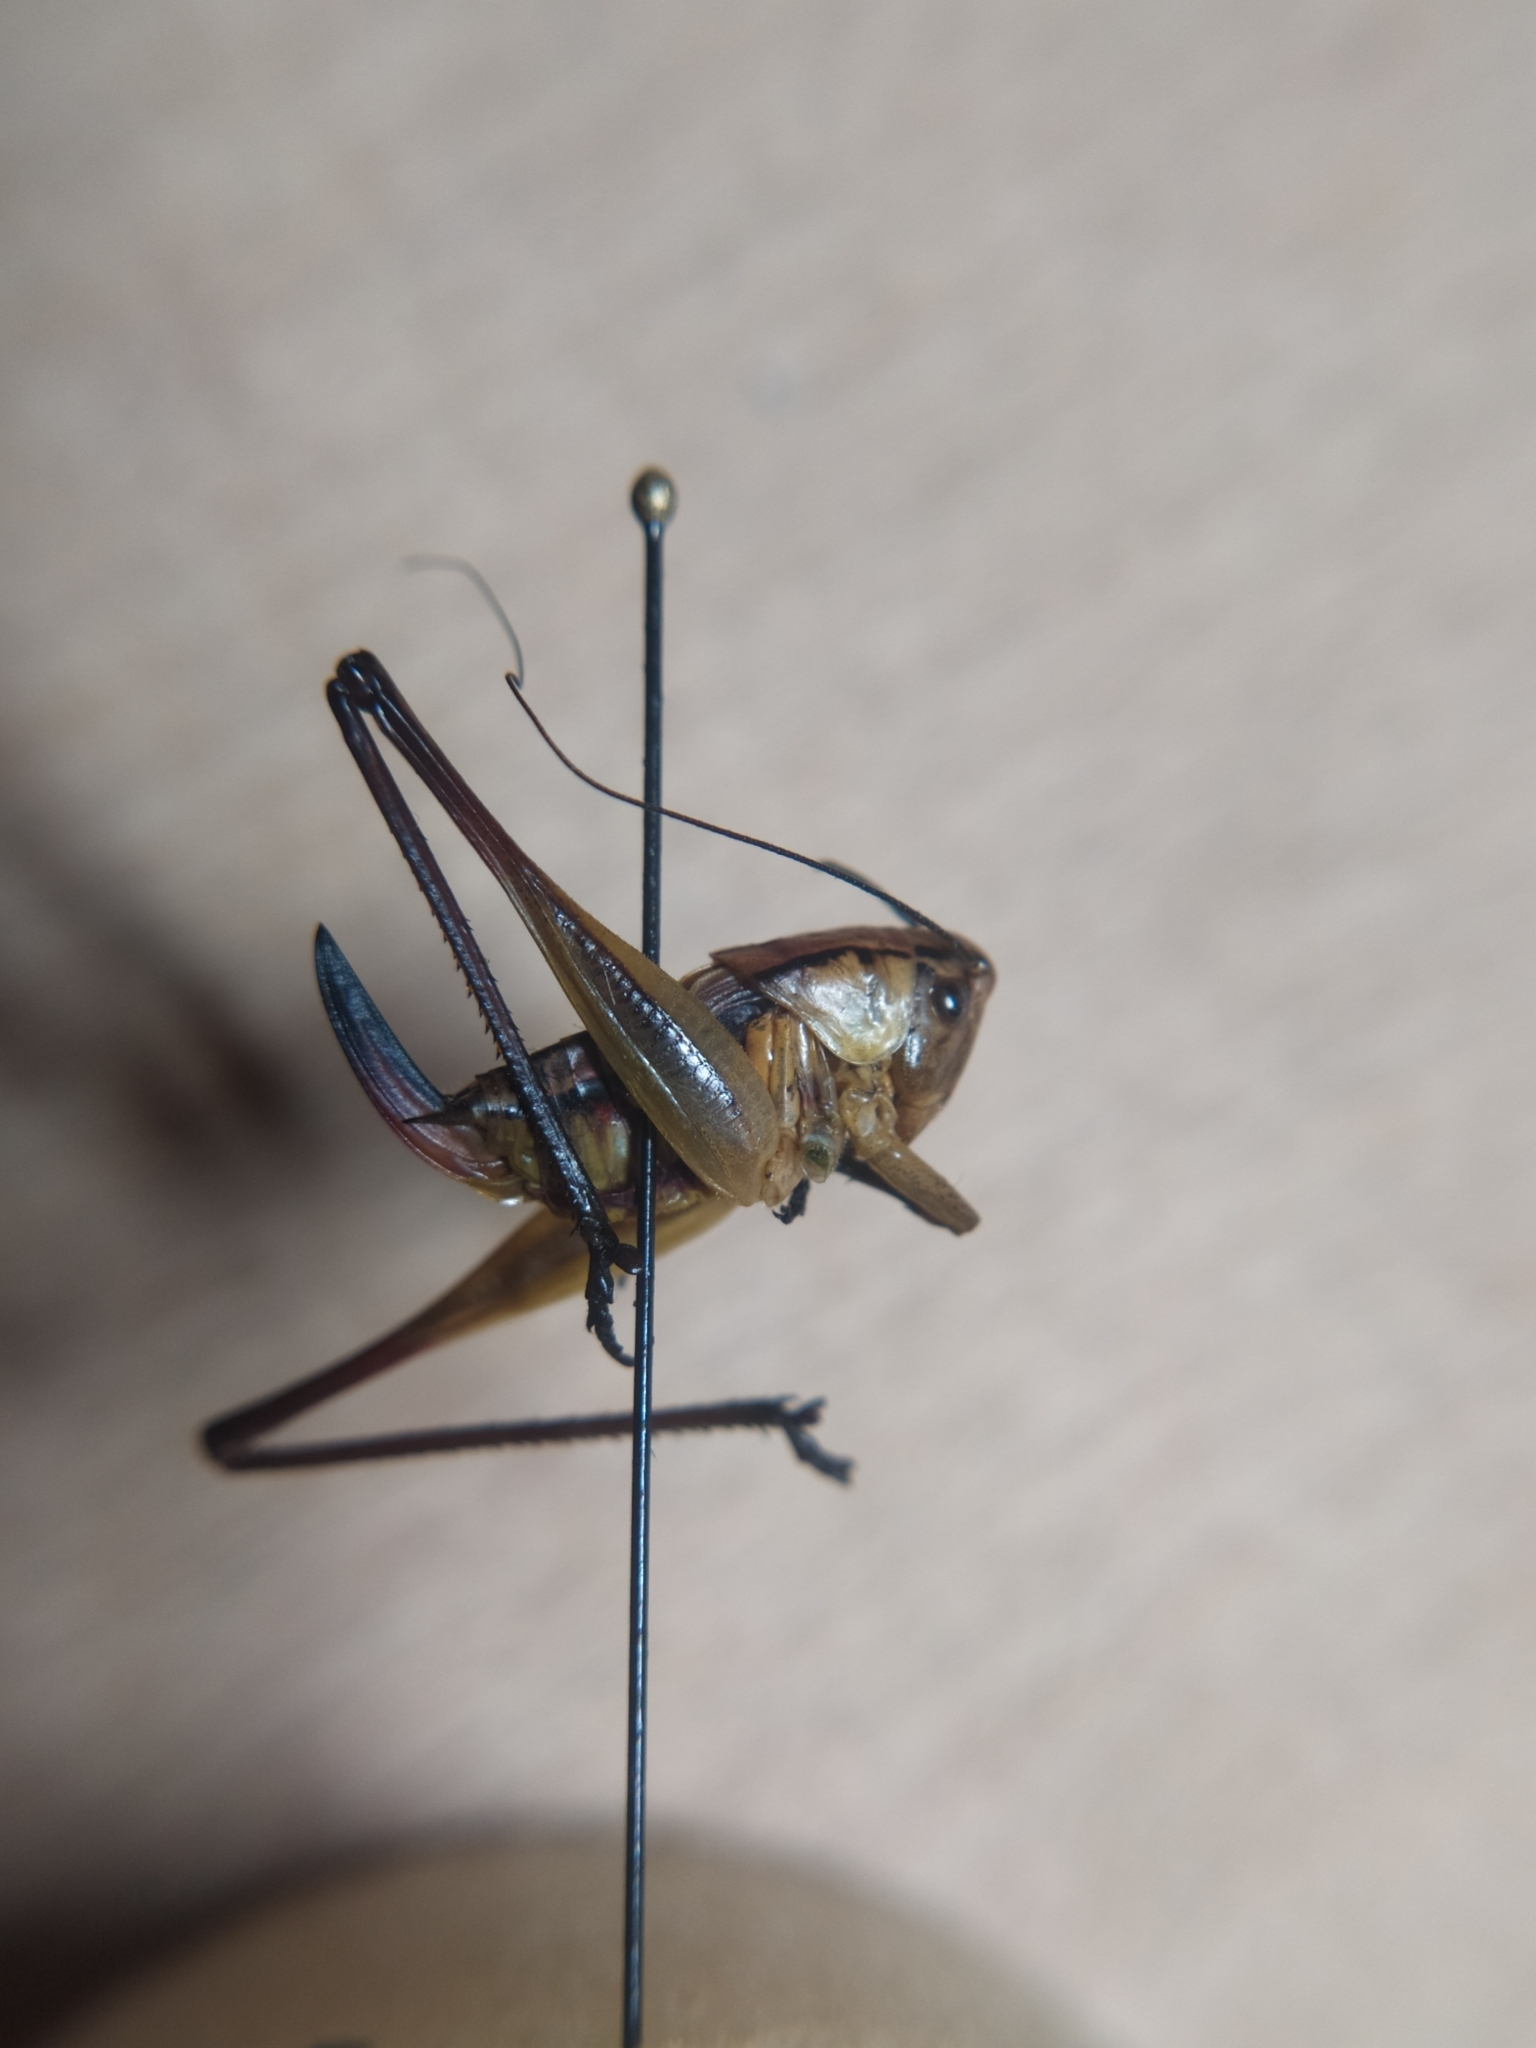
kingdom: Animalia
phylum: Arthropoda
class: Insecta
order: Orthoptera
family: Tettigoniidae
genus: Roeseliana
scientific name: Roeseliana roeselii
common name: Roesel's bush cricket
